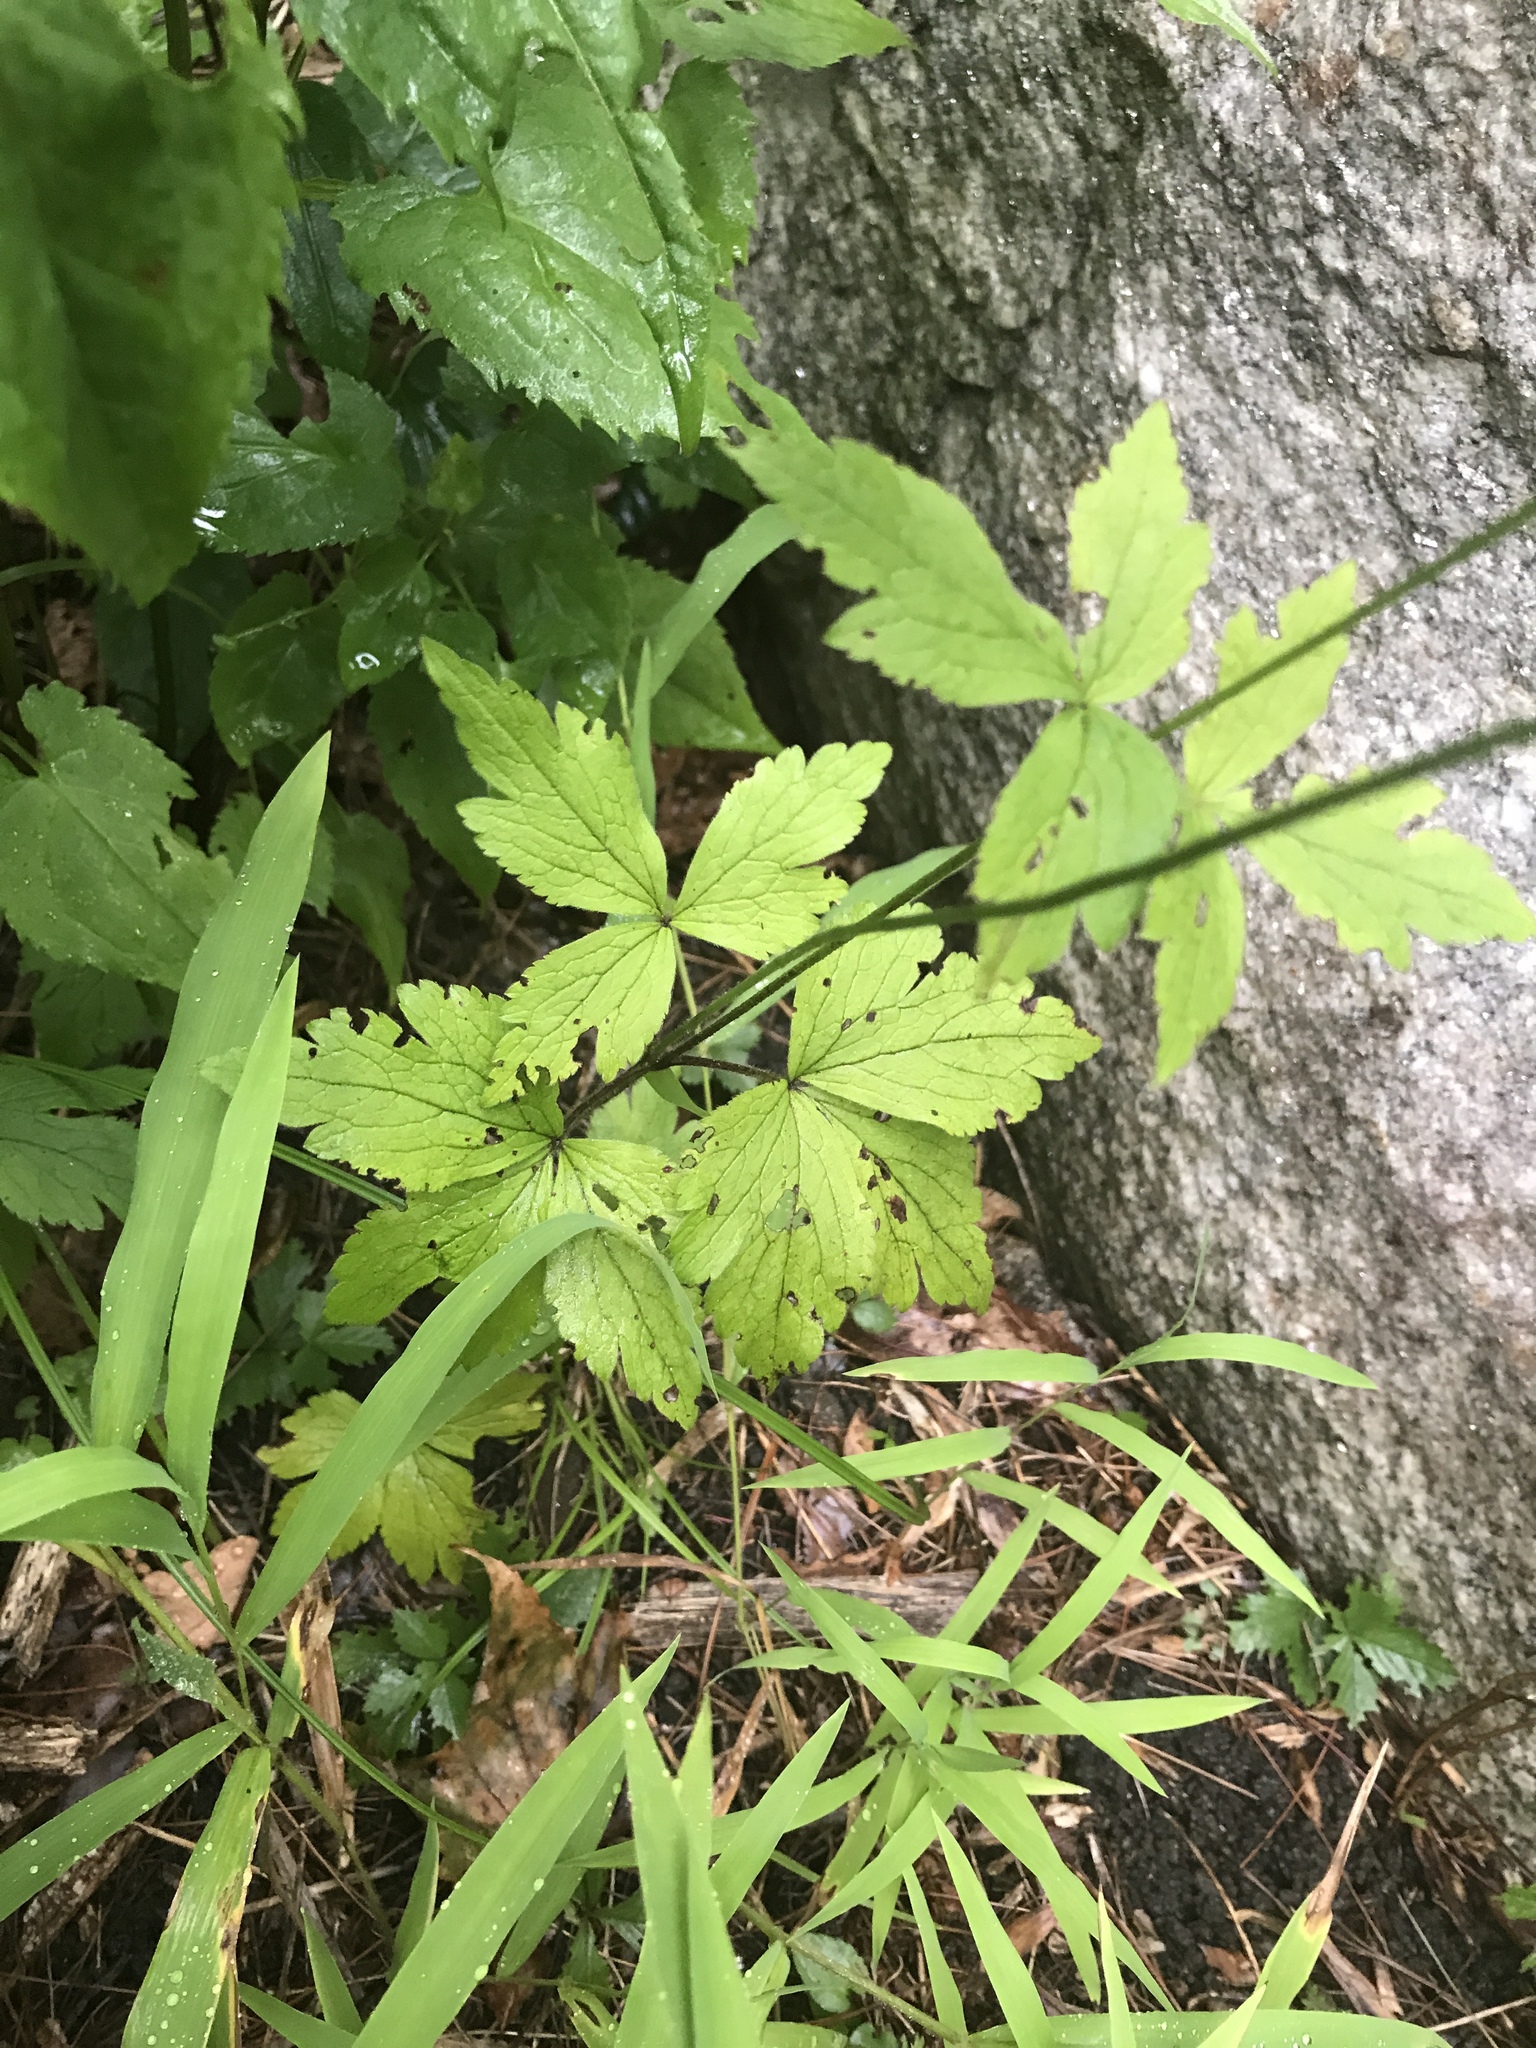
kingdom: Plantae
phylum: Tracheophyta
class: Magnoliopsida
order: Ranunculales
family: Ranunculaceae
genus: Anemone
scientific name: Anemone virginiana
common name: Tall anemone
